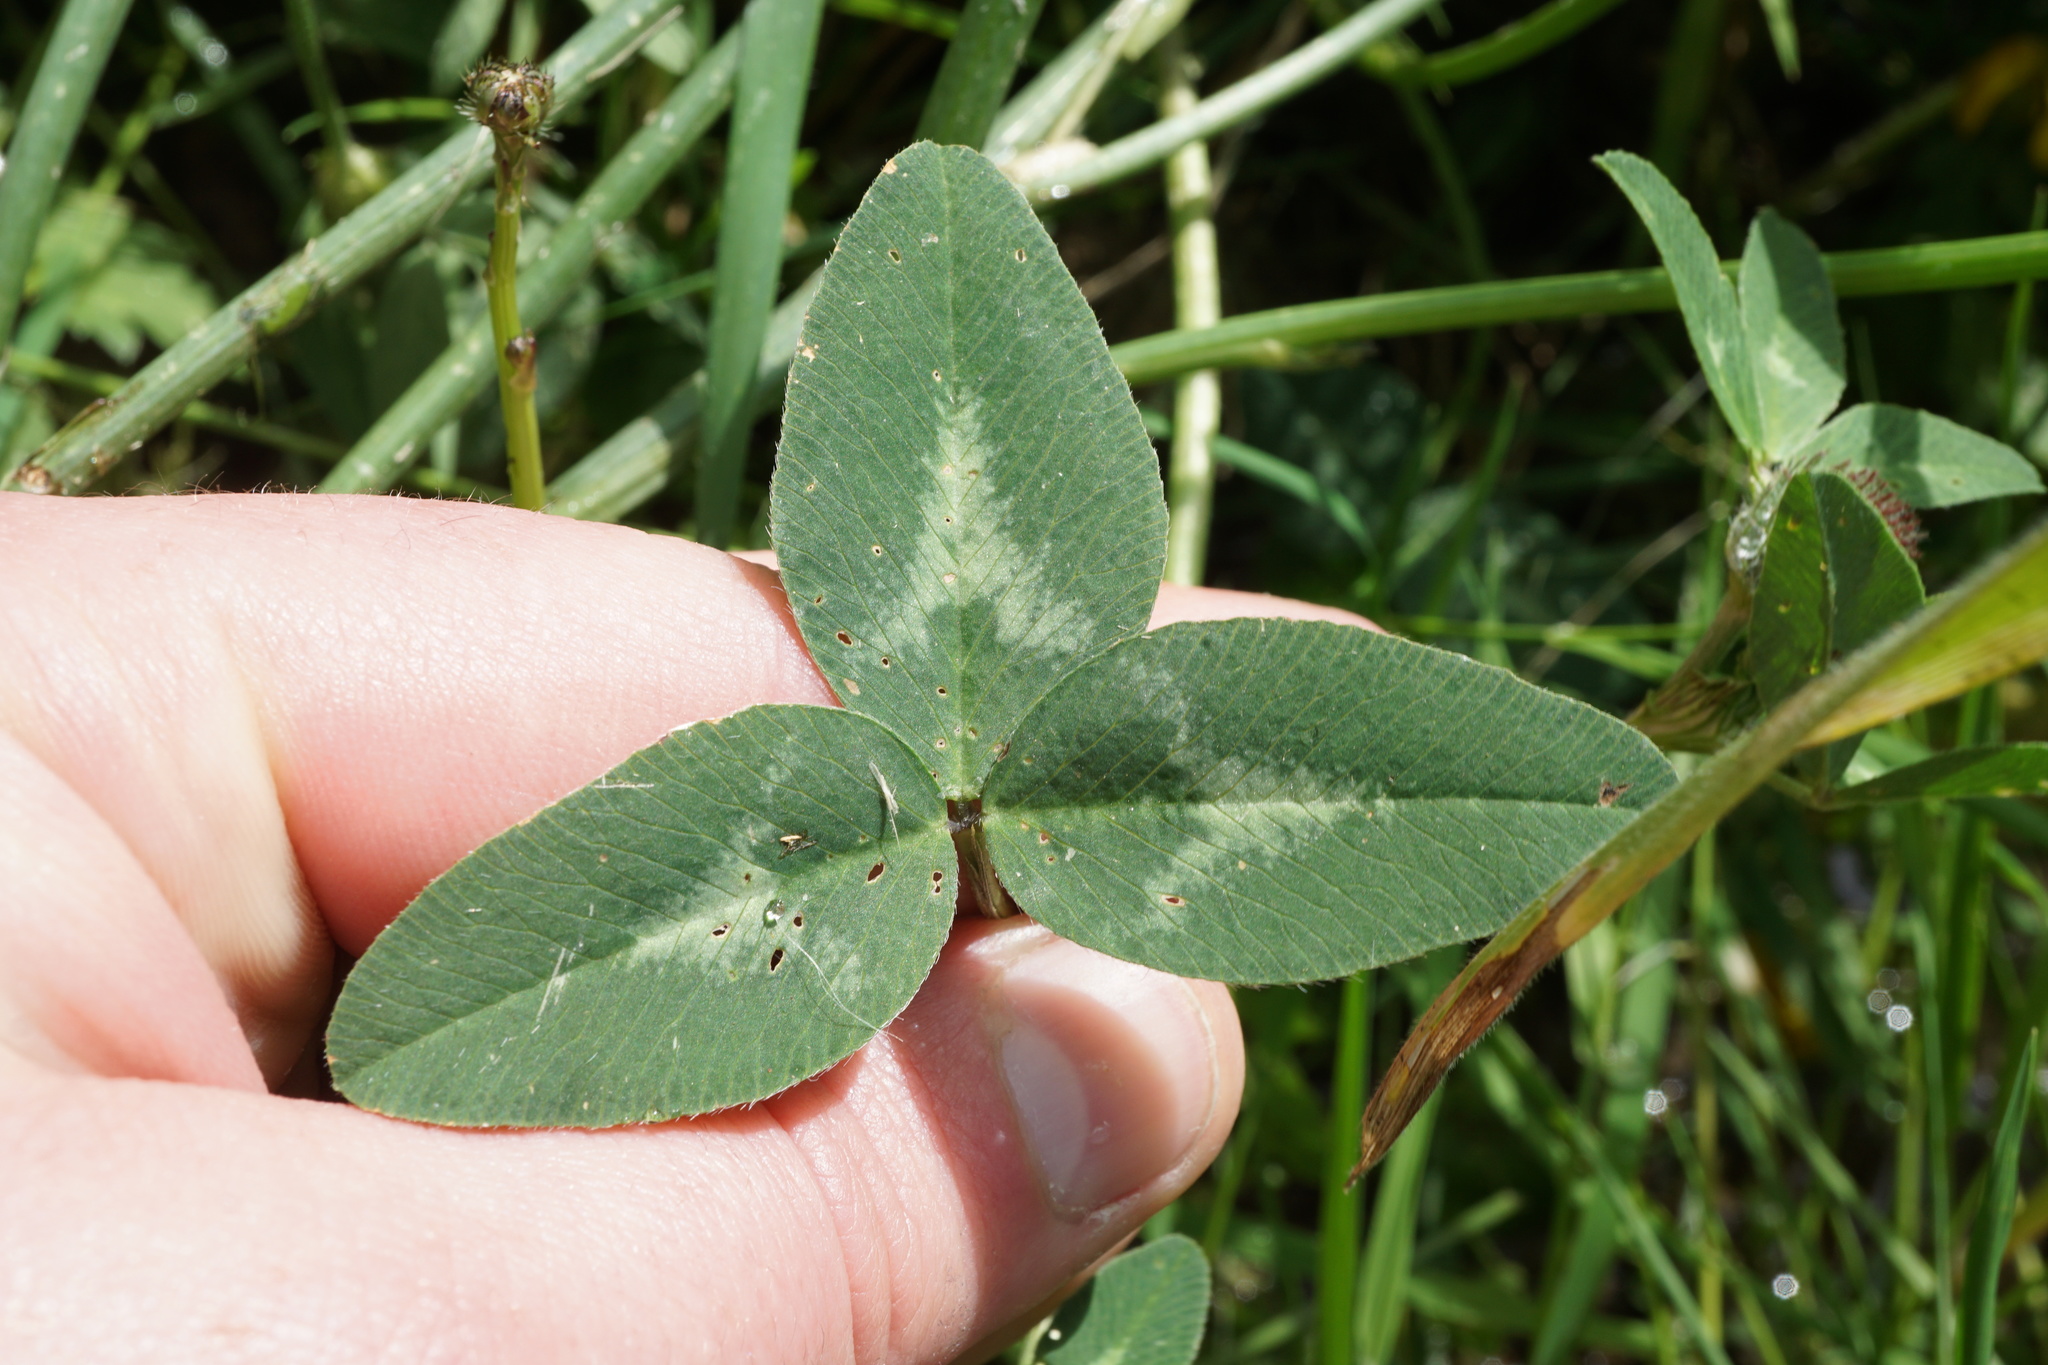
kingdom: Plantae
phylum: Tracheophyta
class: Magnoliopsida
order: Fabales
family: Fabaceae
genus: Trifolium
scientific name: Trifolium pratense
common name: Red clover
